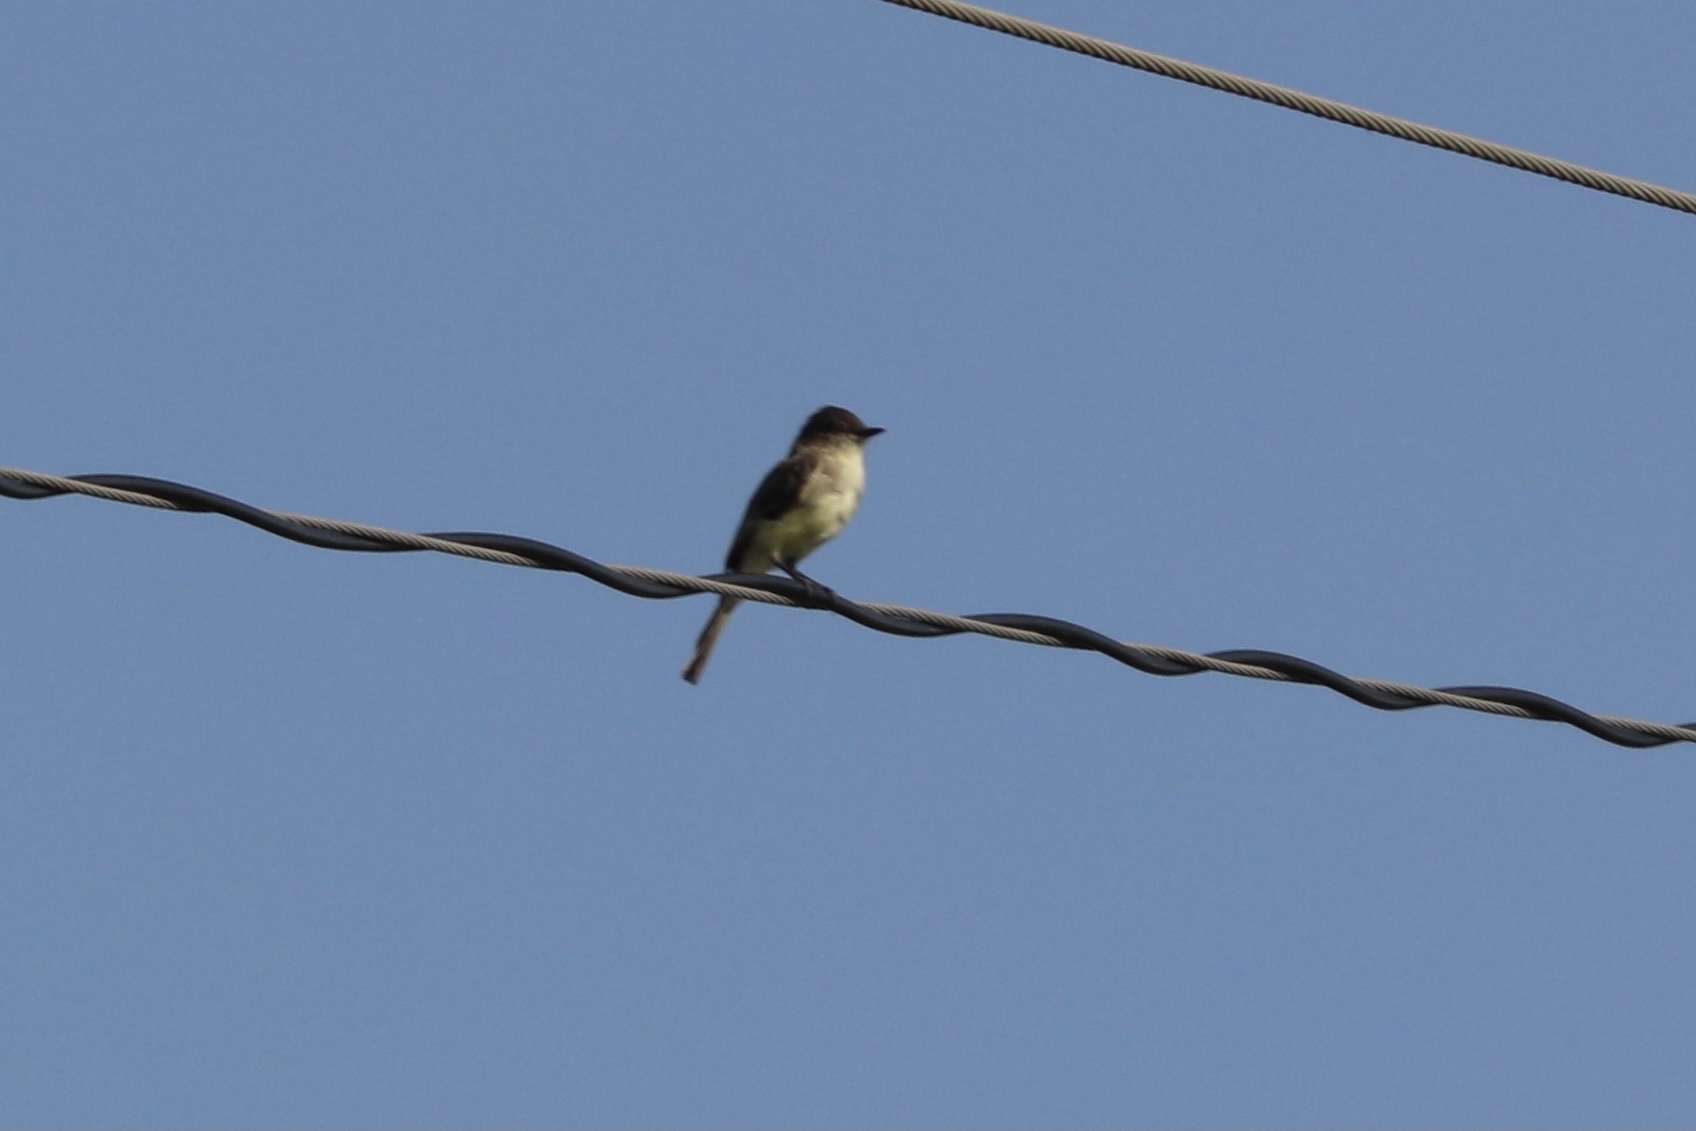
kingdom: Animalia
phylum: Chordata
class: Aves
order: Passeriformes
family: Tyrannidae
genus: Sayornis
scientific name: Sayornis phoebe
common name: Eastern phoebe
